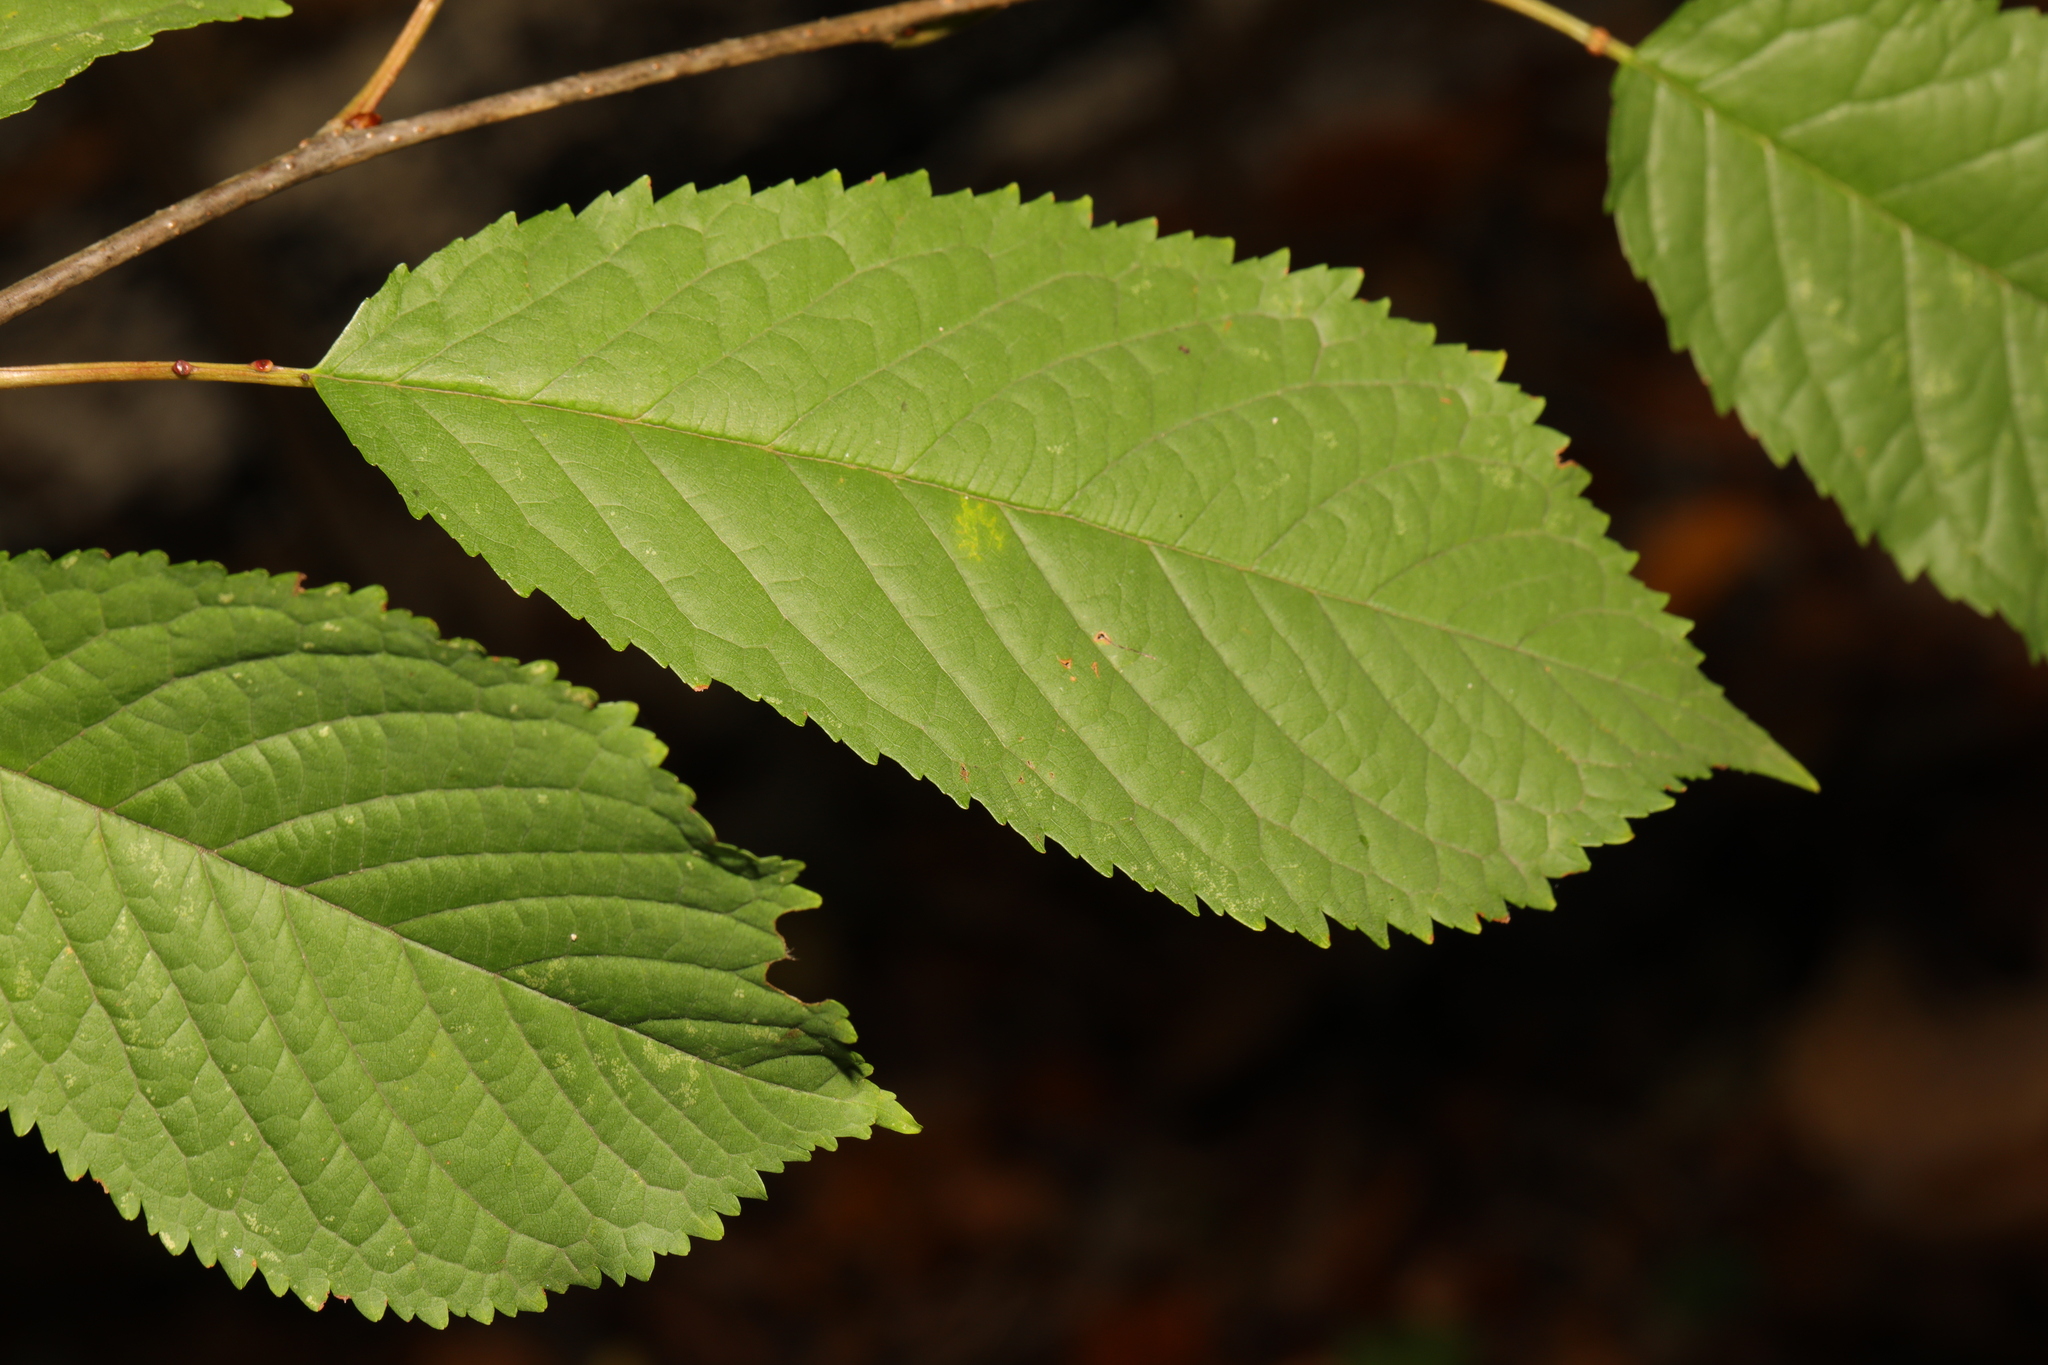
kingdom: Plantae
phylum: Tracheophyta
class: Magnoliopsida
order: Rosales
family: Rosaceae
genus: Prunus
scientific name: Prunus avium
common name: Sweet cherry
